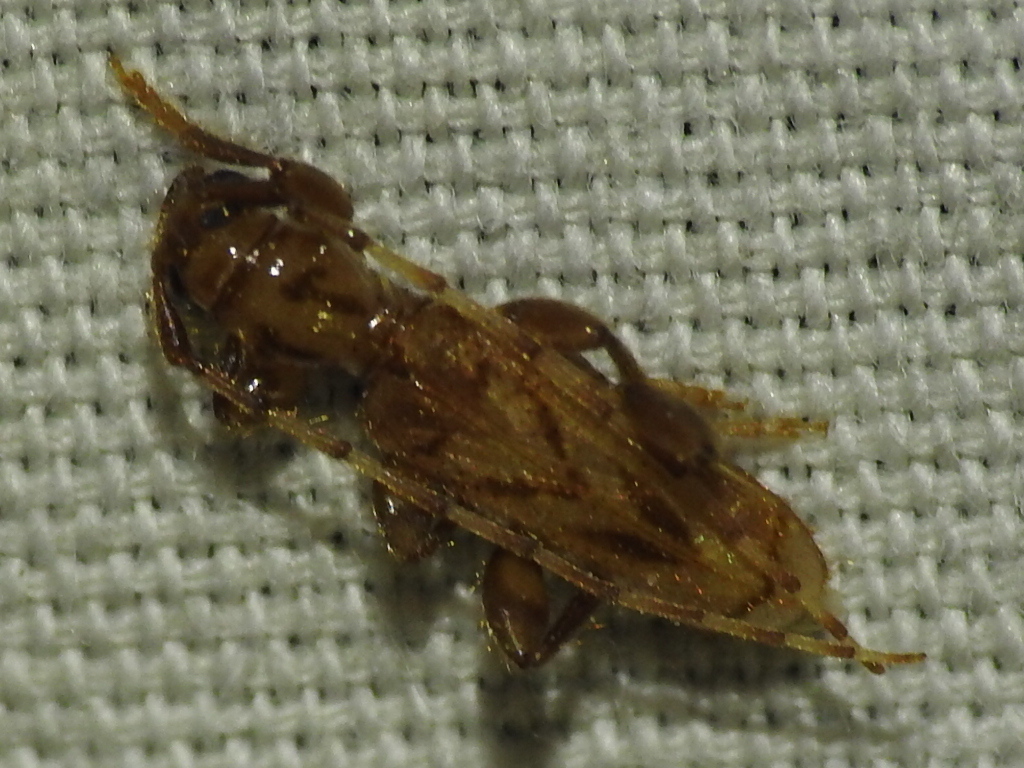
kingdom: Animalia
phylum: Arthropoda
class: Insecta
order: Coleoptera
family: Cerambycidae
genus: Obrium
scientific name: Obrium maculatum
